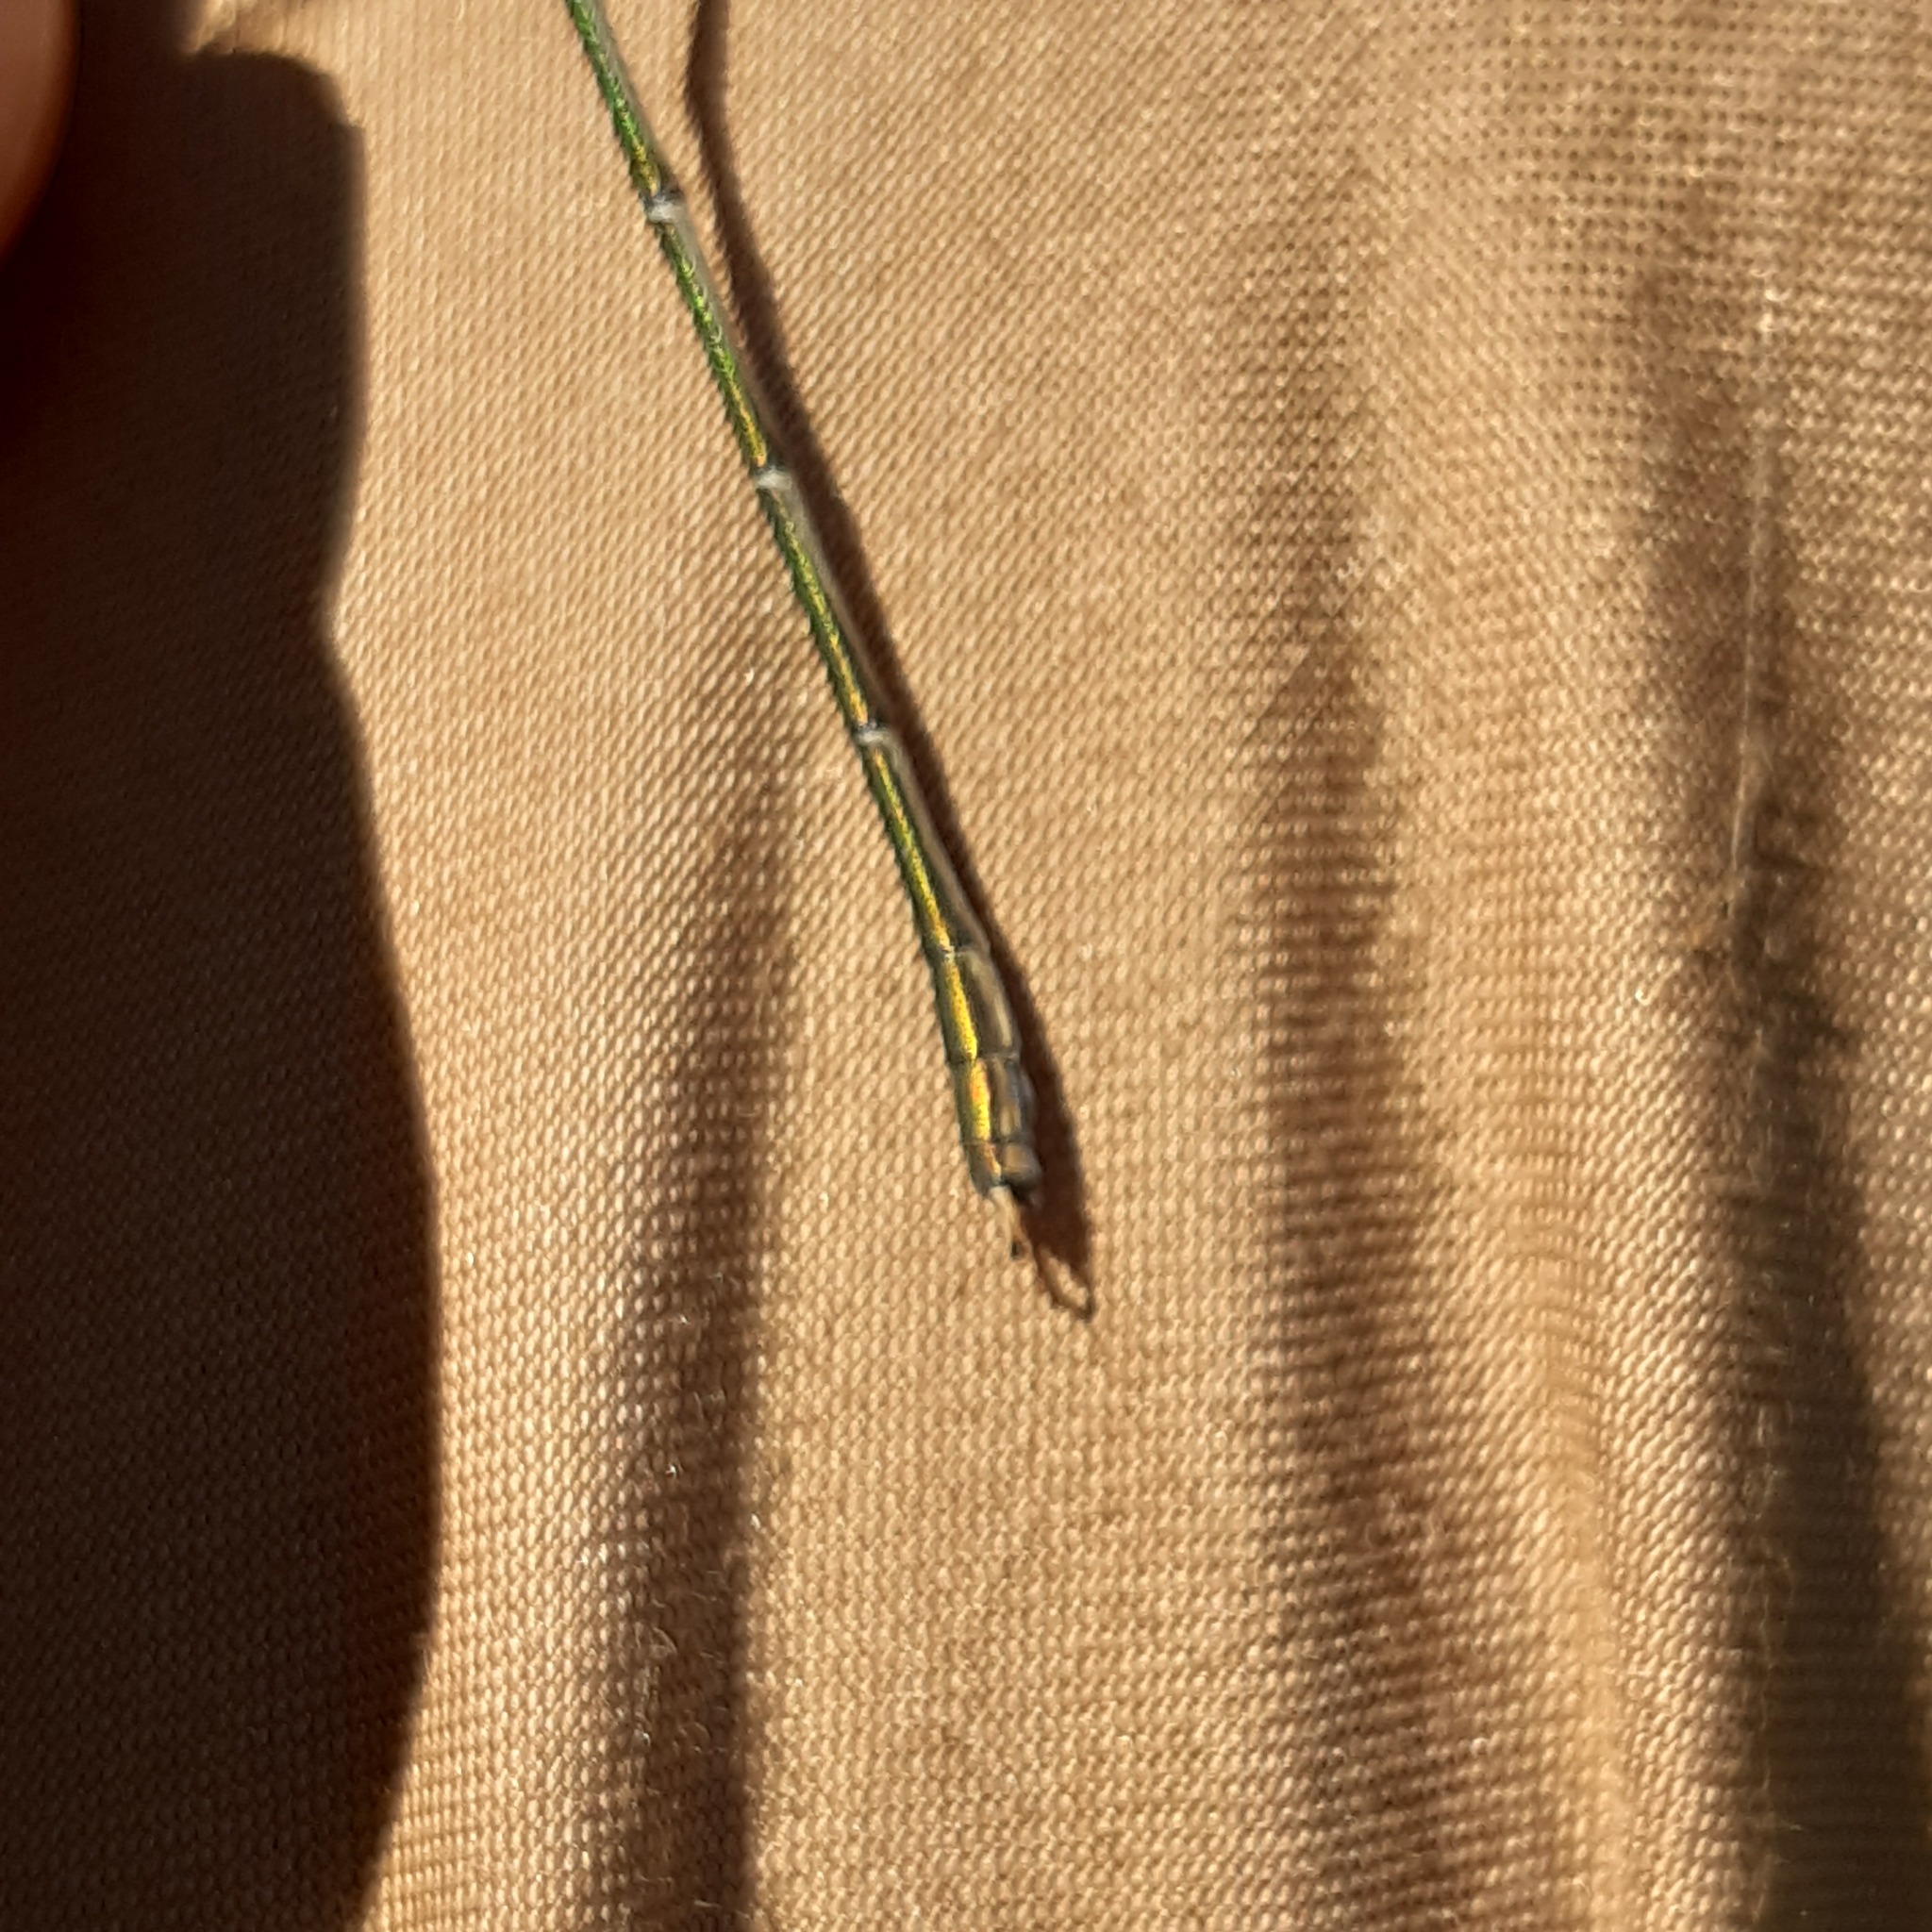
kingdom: Animalia
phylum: Arthropoda
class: Insecta
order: Odonata
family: Lestidae
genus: Chalcolestes
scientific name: Chalcolestes viridis
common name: Green emerald damselfly
